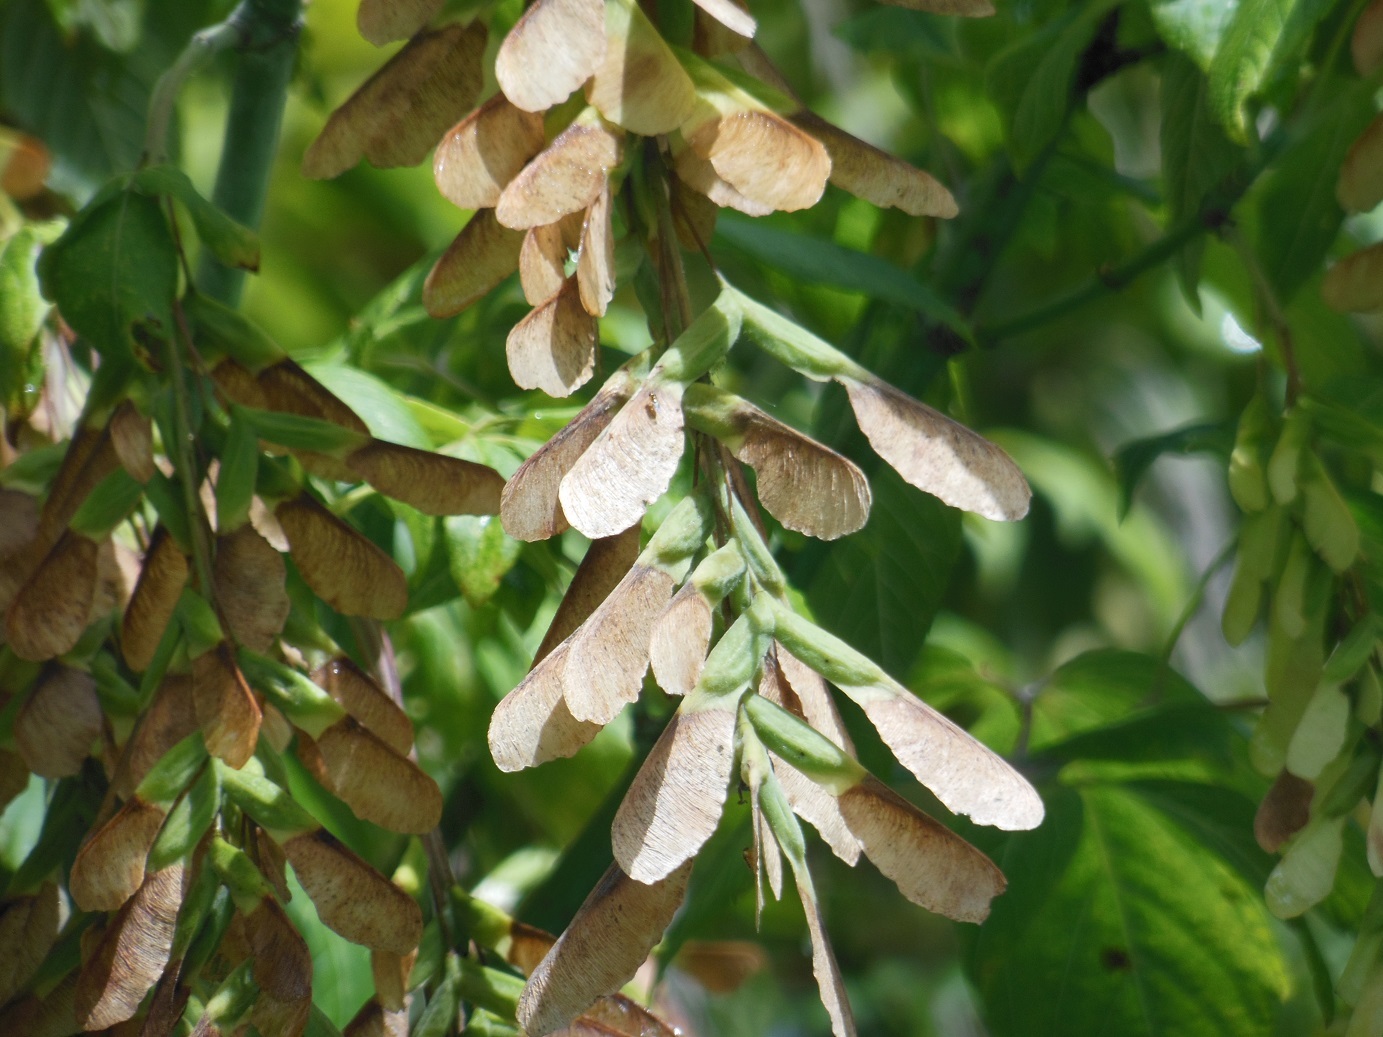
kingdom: Plantae
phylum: Tracheophyta
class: Magnoliopsida
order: Sapindales
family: Sapindaceae
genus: Acer
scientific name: Acer negundo
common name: Ashleaf maple
